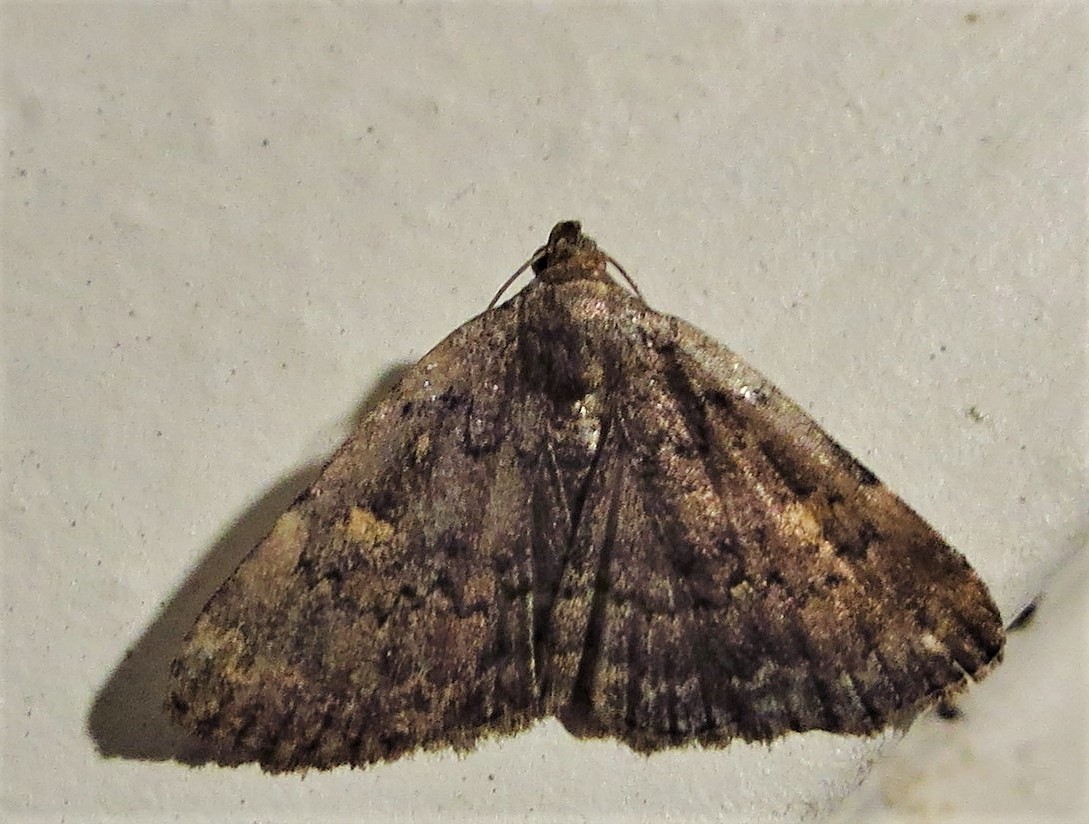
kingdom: Animalia
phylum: Arthropoda
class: Insecta
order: Lepidoptera
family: Erebidae
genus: Idia
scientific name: Idia aemula
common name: Common idia moth
